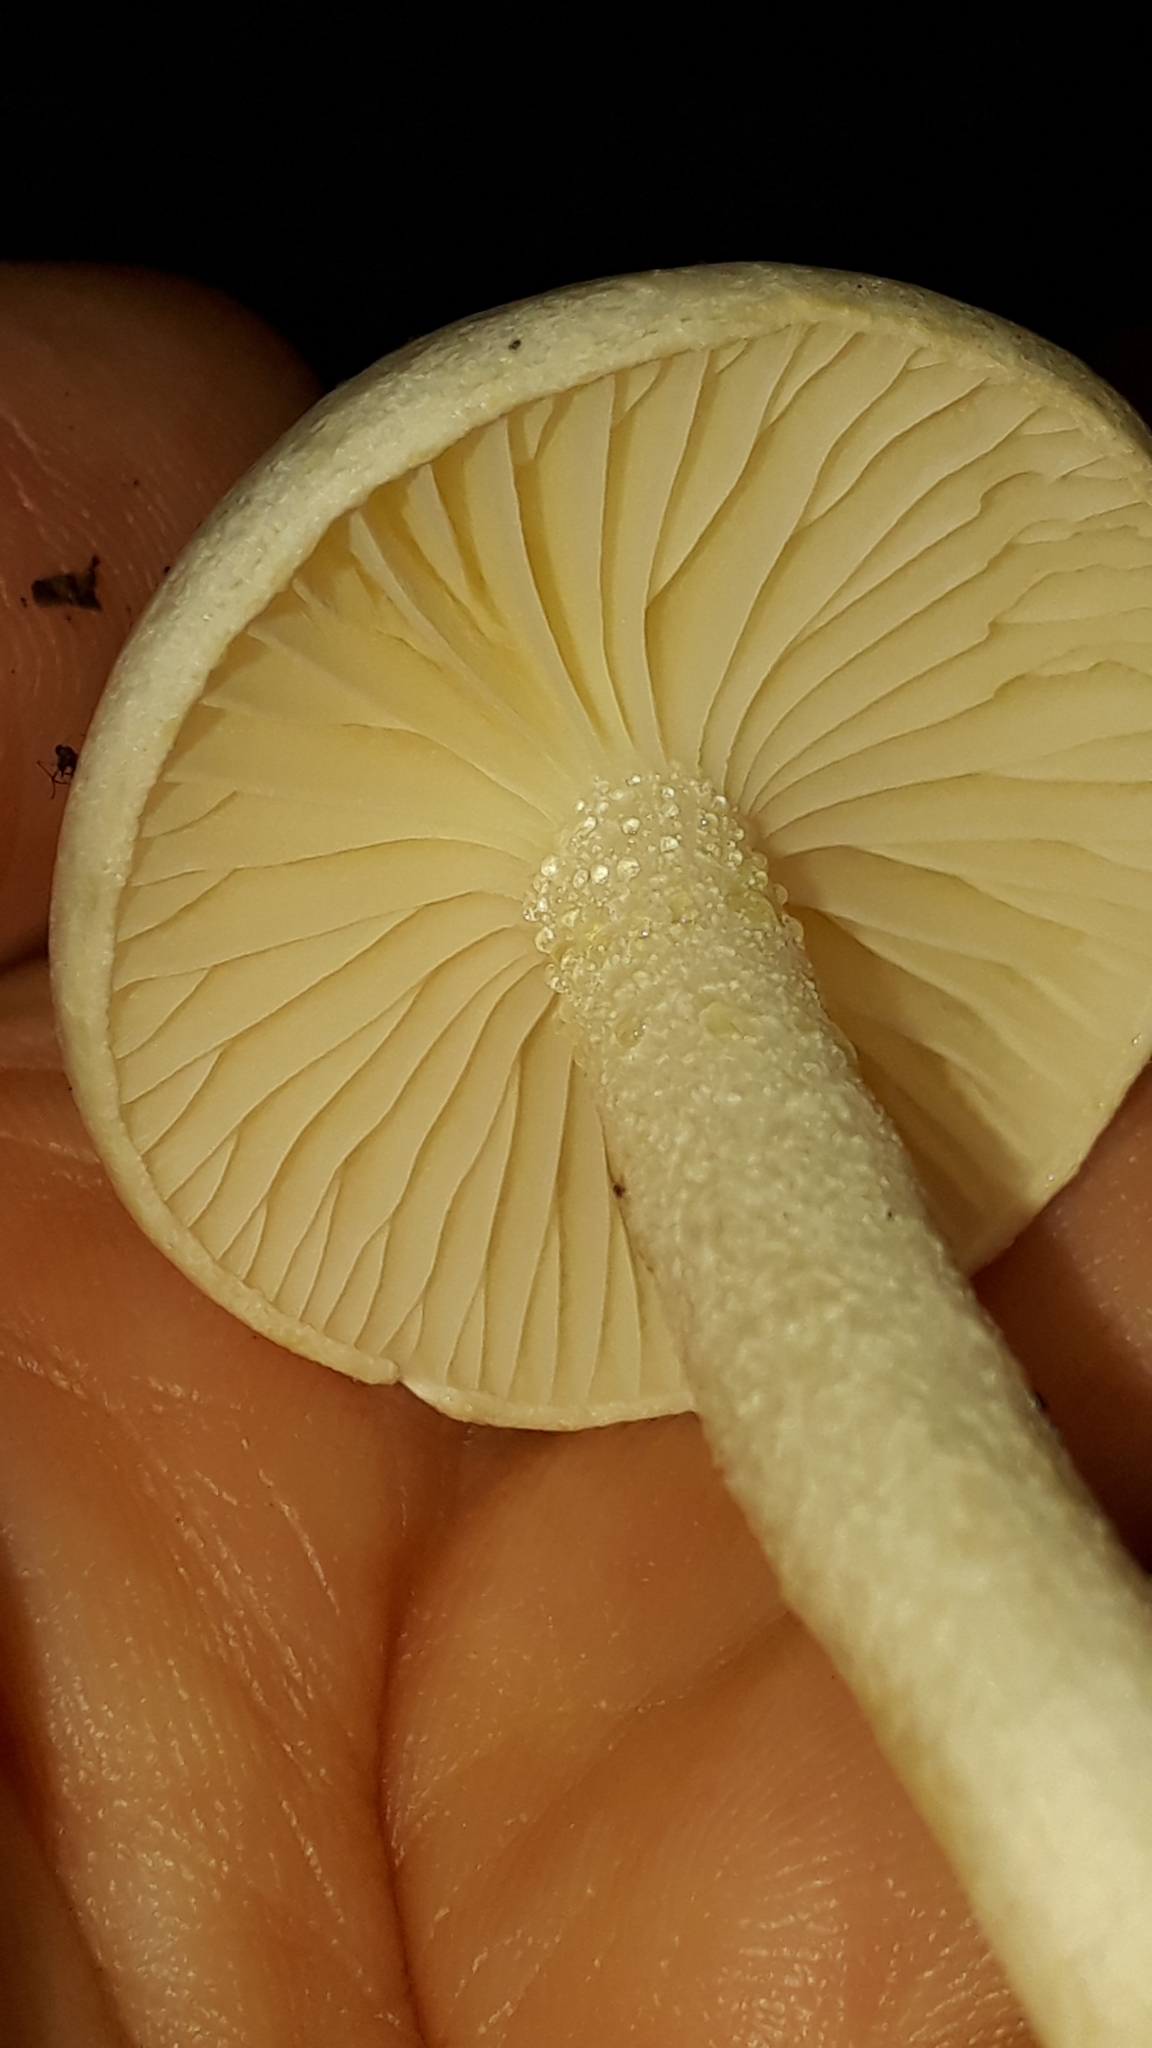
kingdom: Fungi
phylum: Basidiomycota
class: Agaricomycetes
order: Agaricales
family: Hygrophoraceae
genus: Hygrophorus
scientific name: Hygrophorus eburneus
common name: Ivory wax-cap
